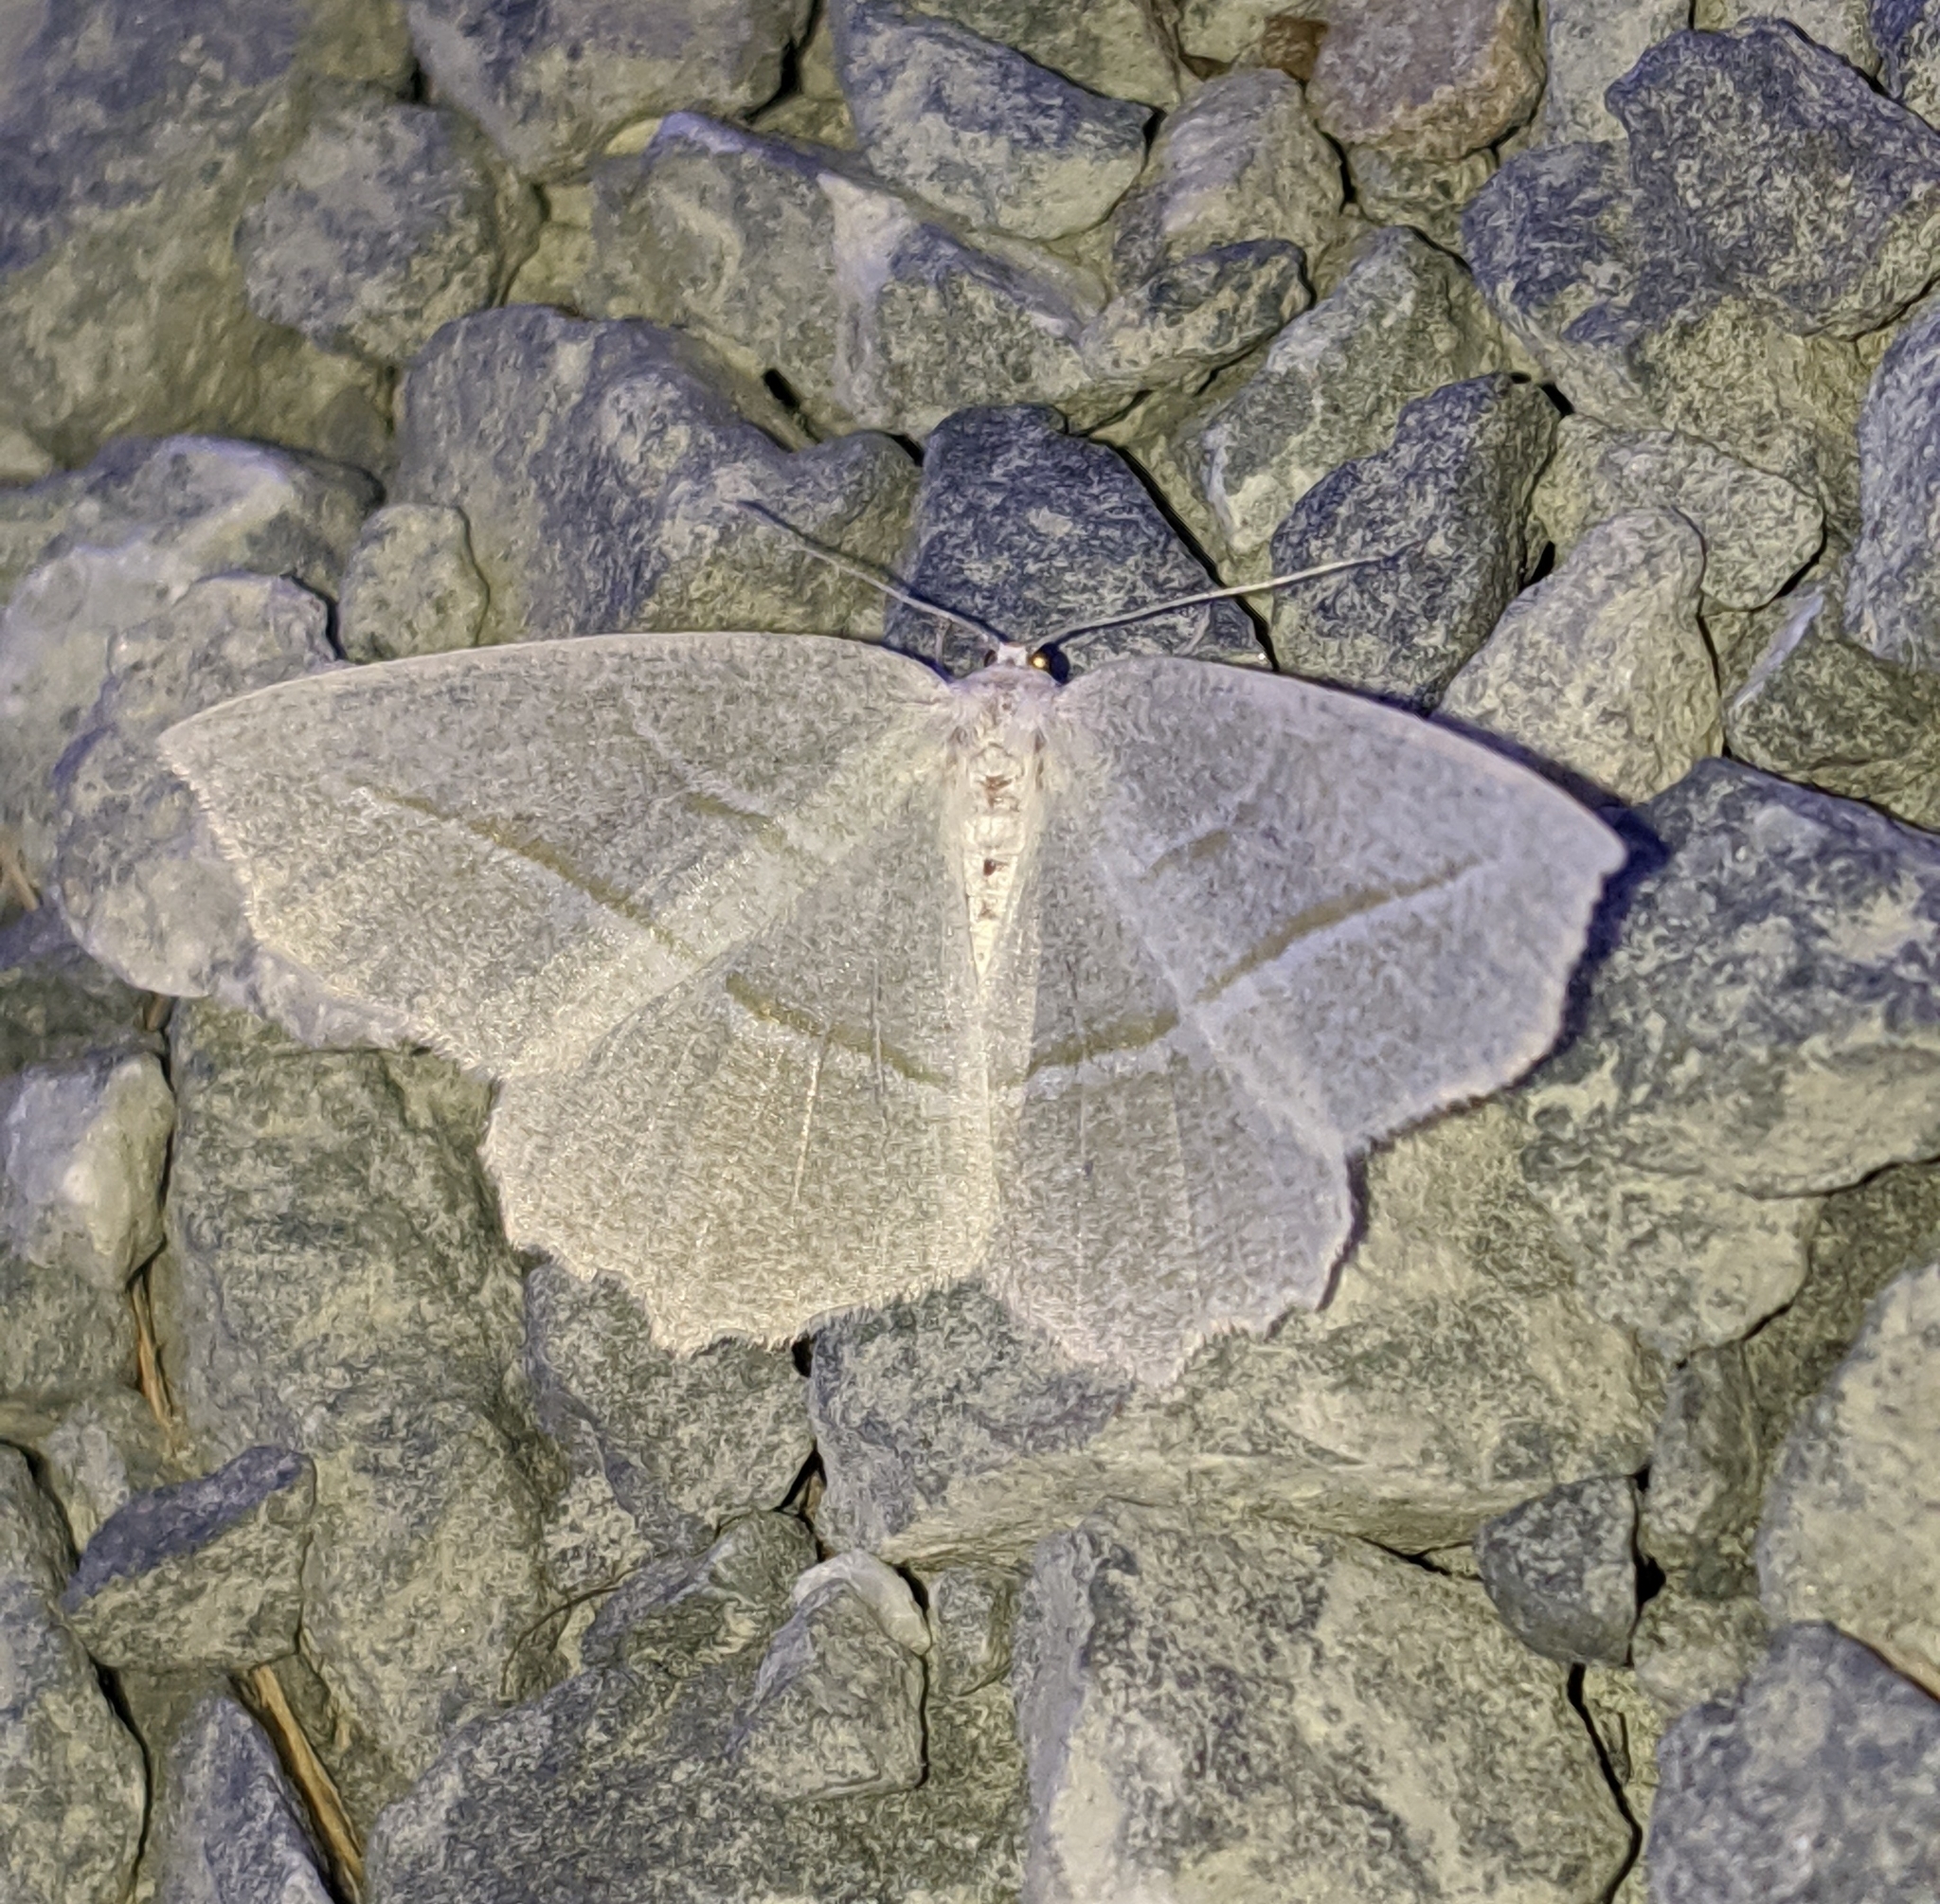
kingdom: Animalia
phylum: Arthropoda
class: Insecta
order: Lepidoptera
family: Geometridae
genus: Campaea
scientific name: Campaea perlata
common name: Fringed looper
